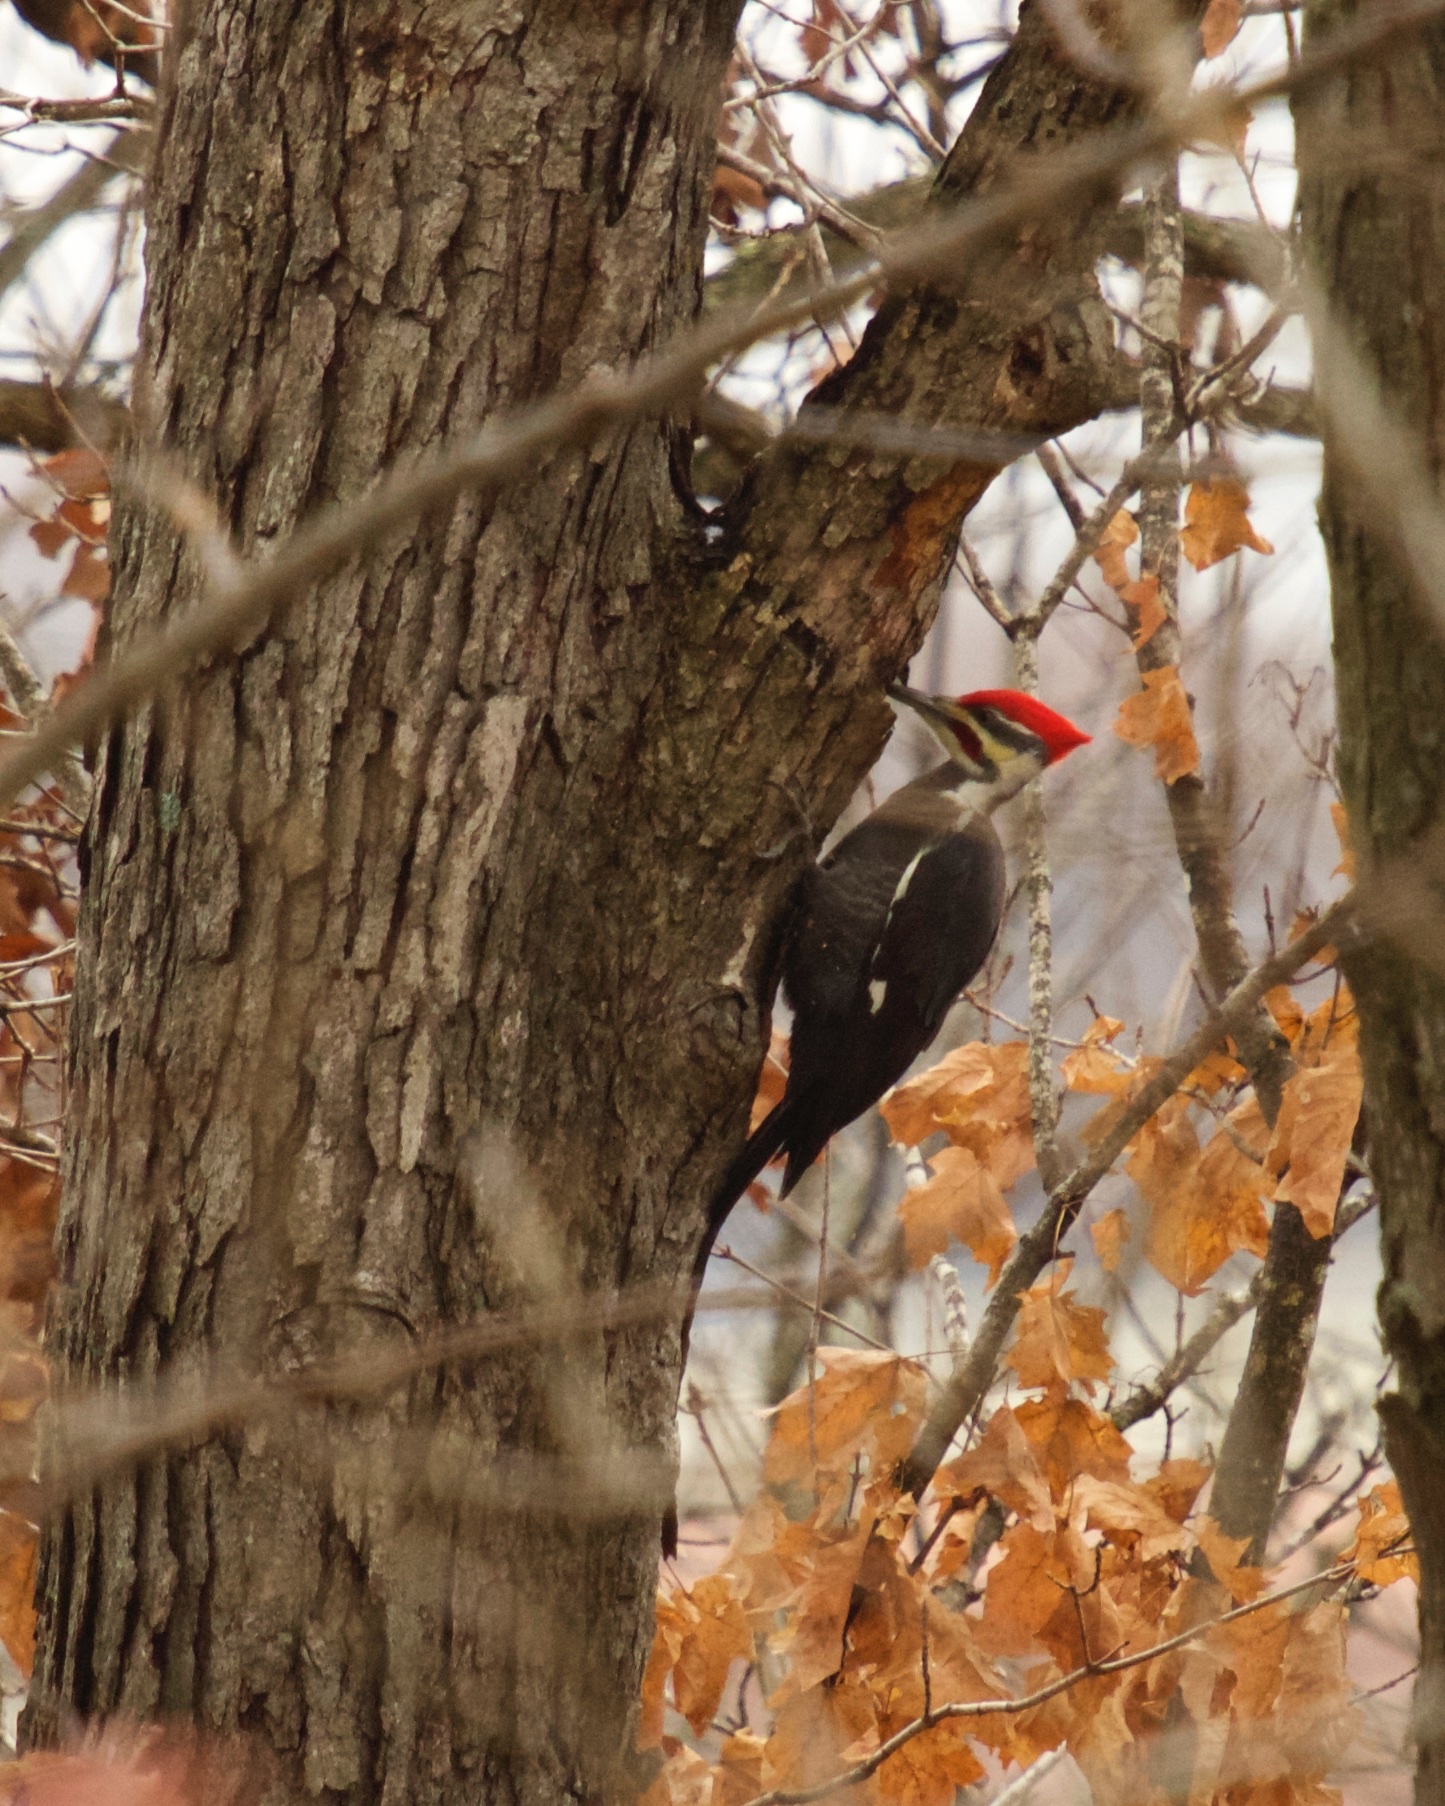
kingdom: Animalia
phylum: Chordata
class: Aves
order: Piciformes
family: Picidae
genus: Dryocopus
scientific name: Dryocopus pileatus
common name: Pileated woodpecker
